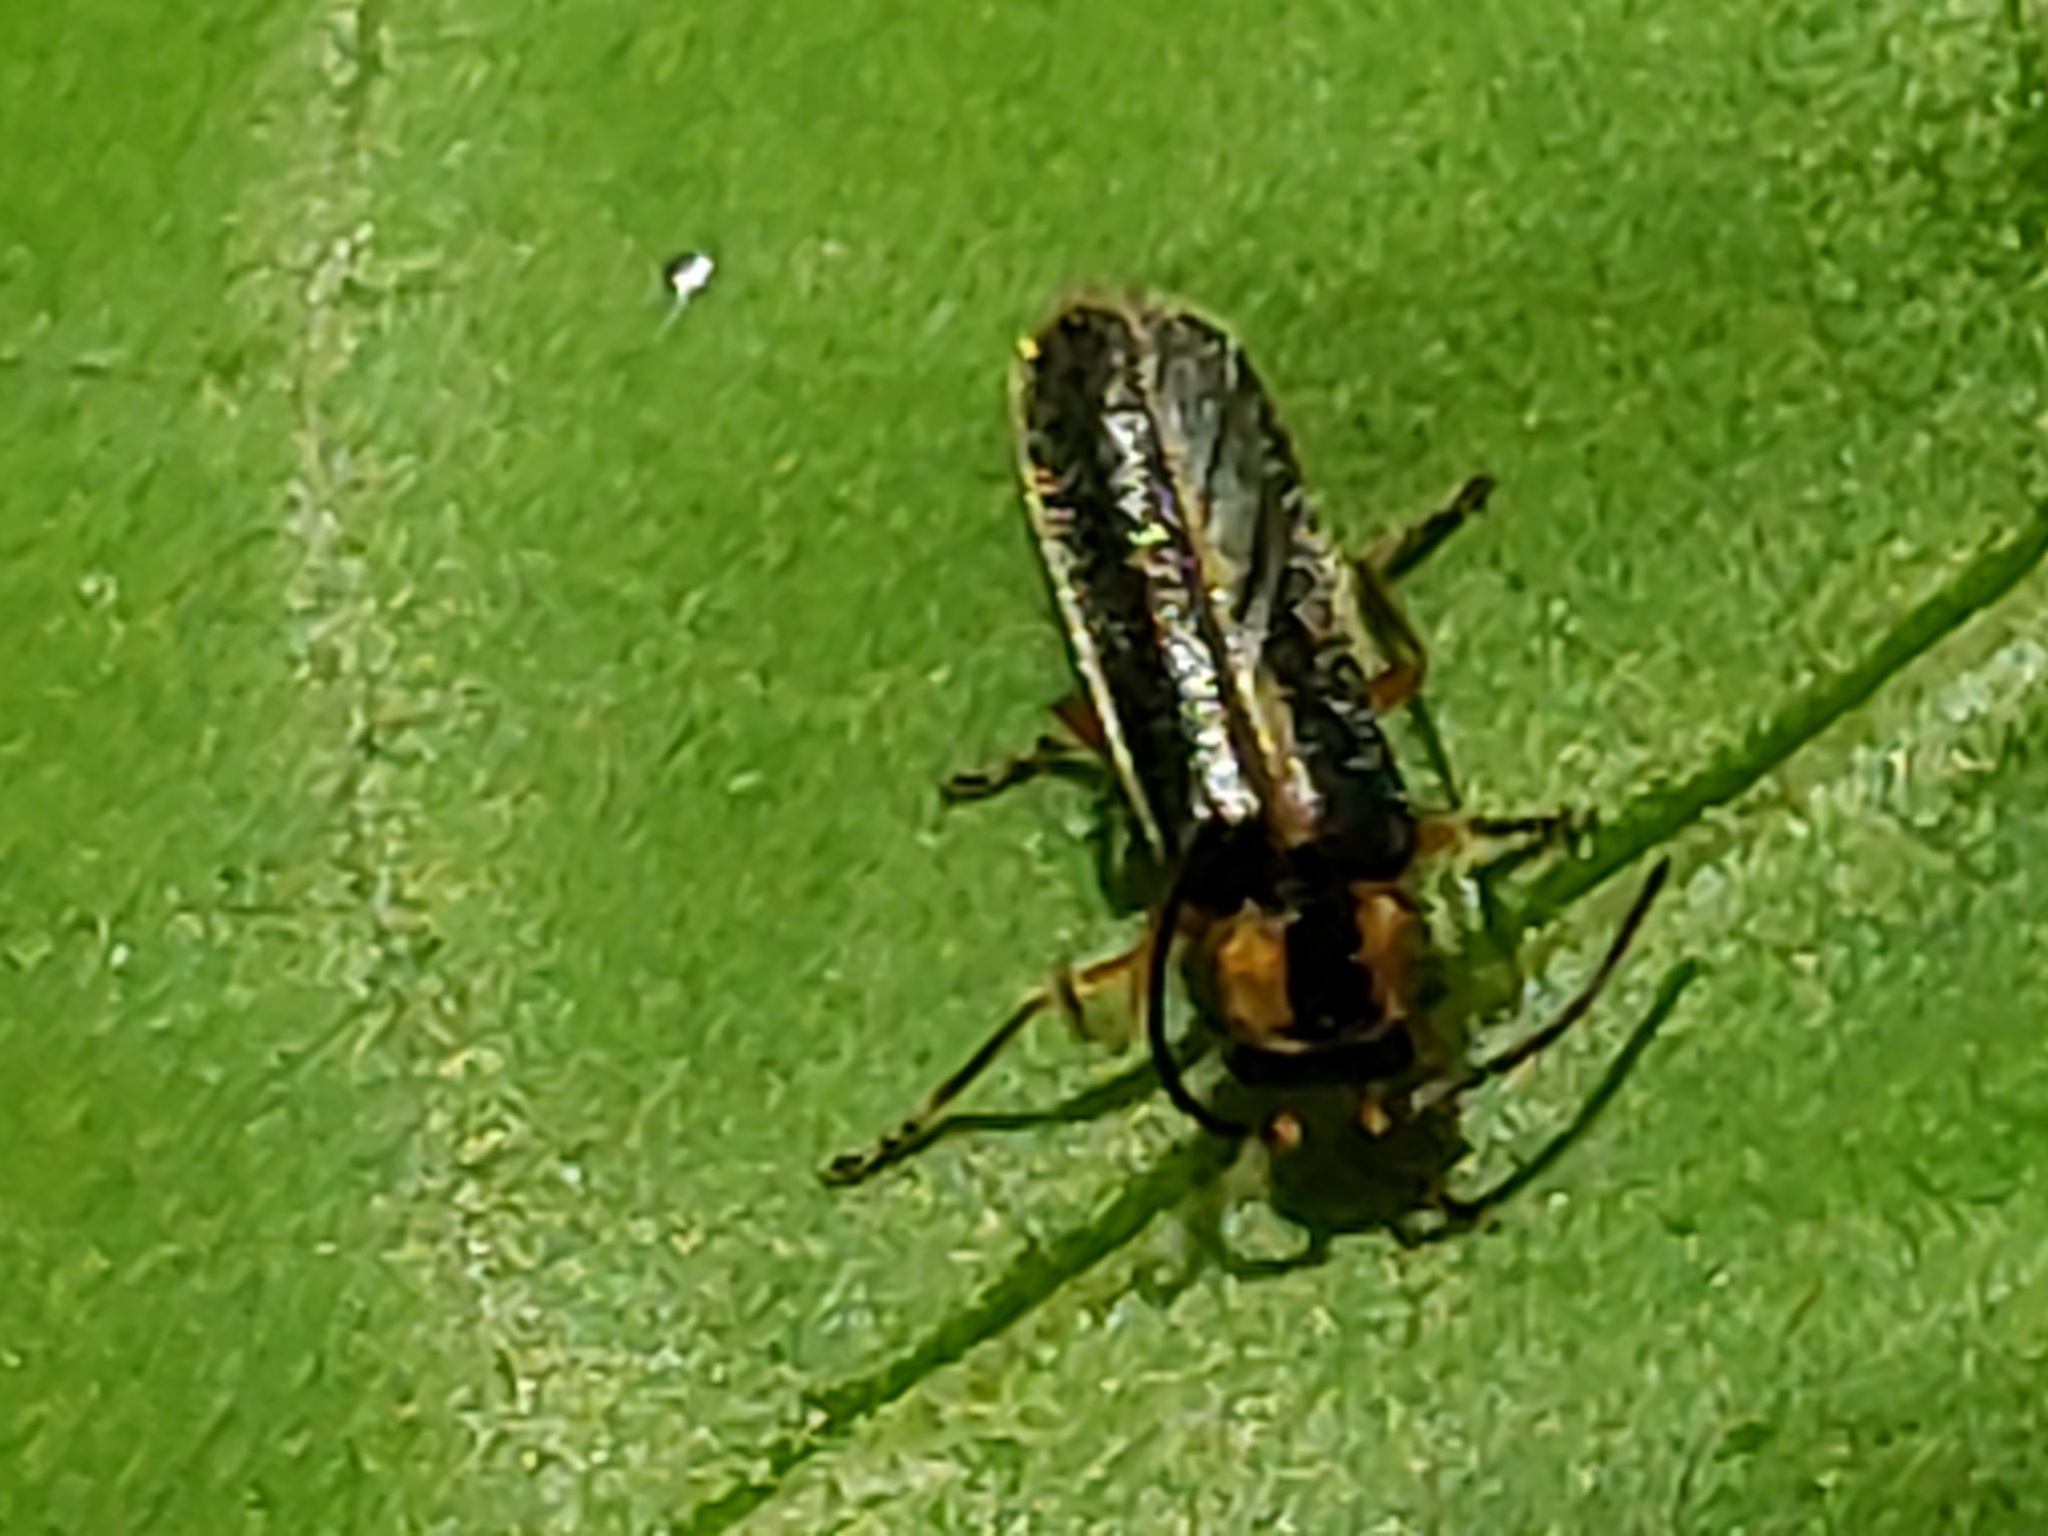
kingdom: Animalia
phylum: Arthropoda
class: Insecta
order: Coleoptera
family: Cantharidae
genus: Rhagonycha
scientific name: Rhagonycha scitula
